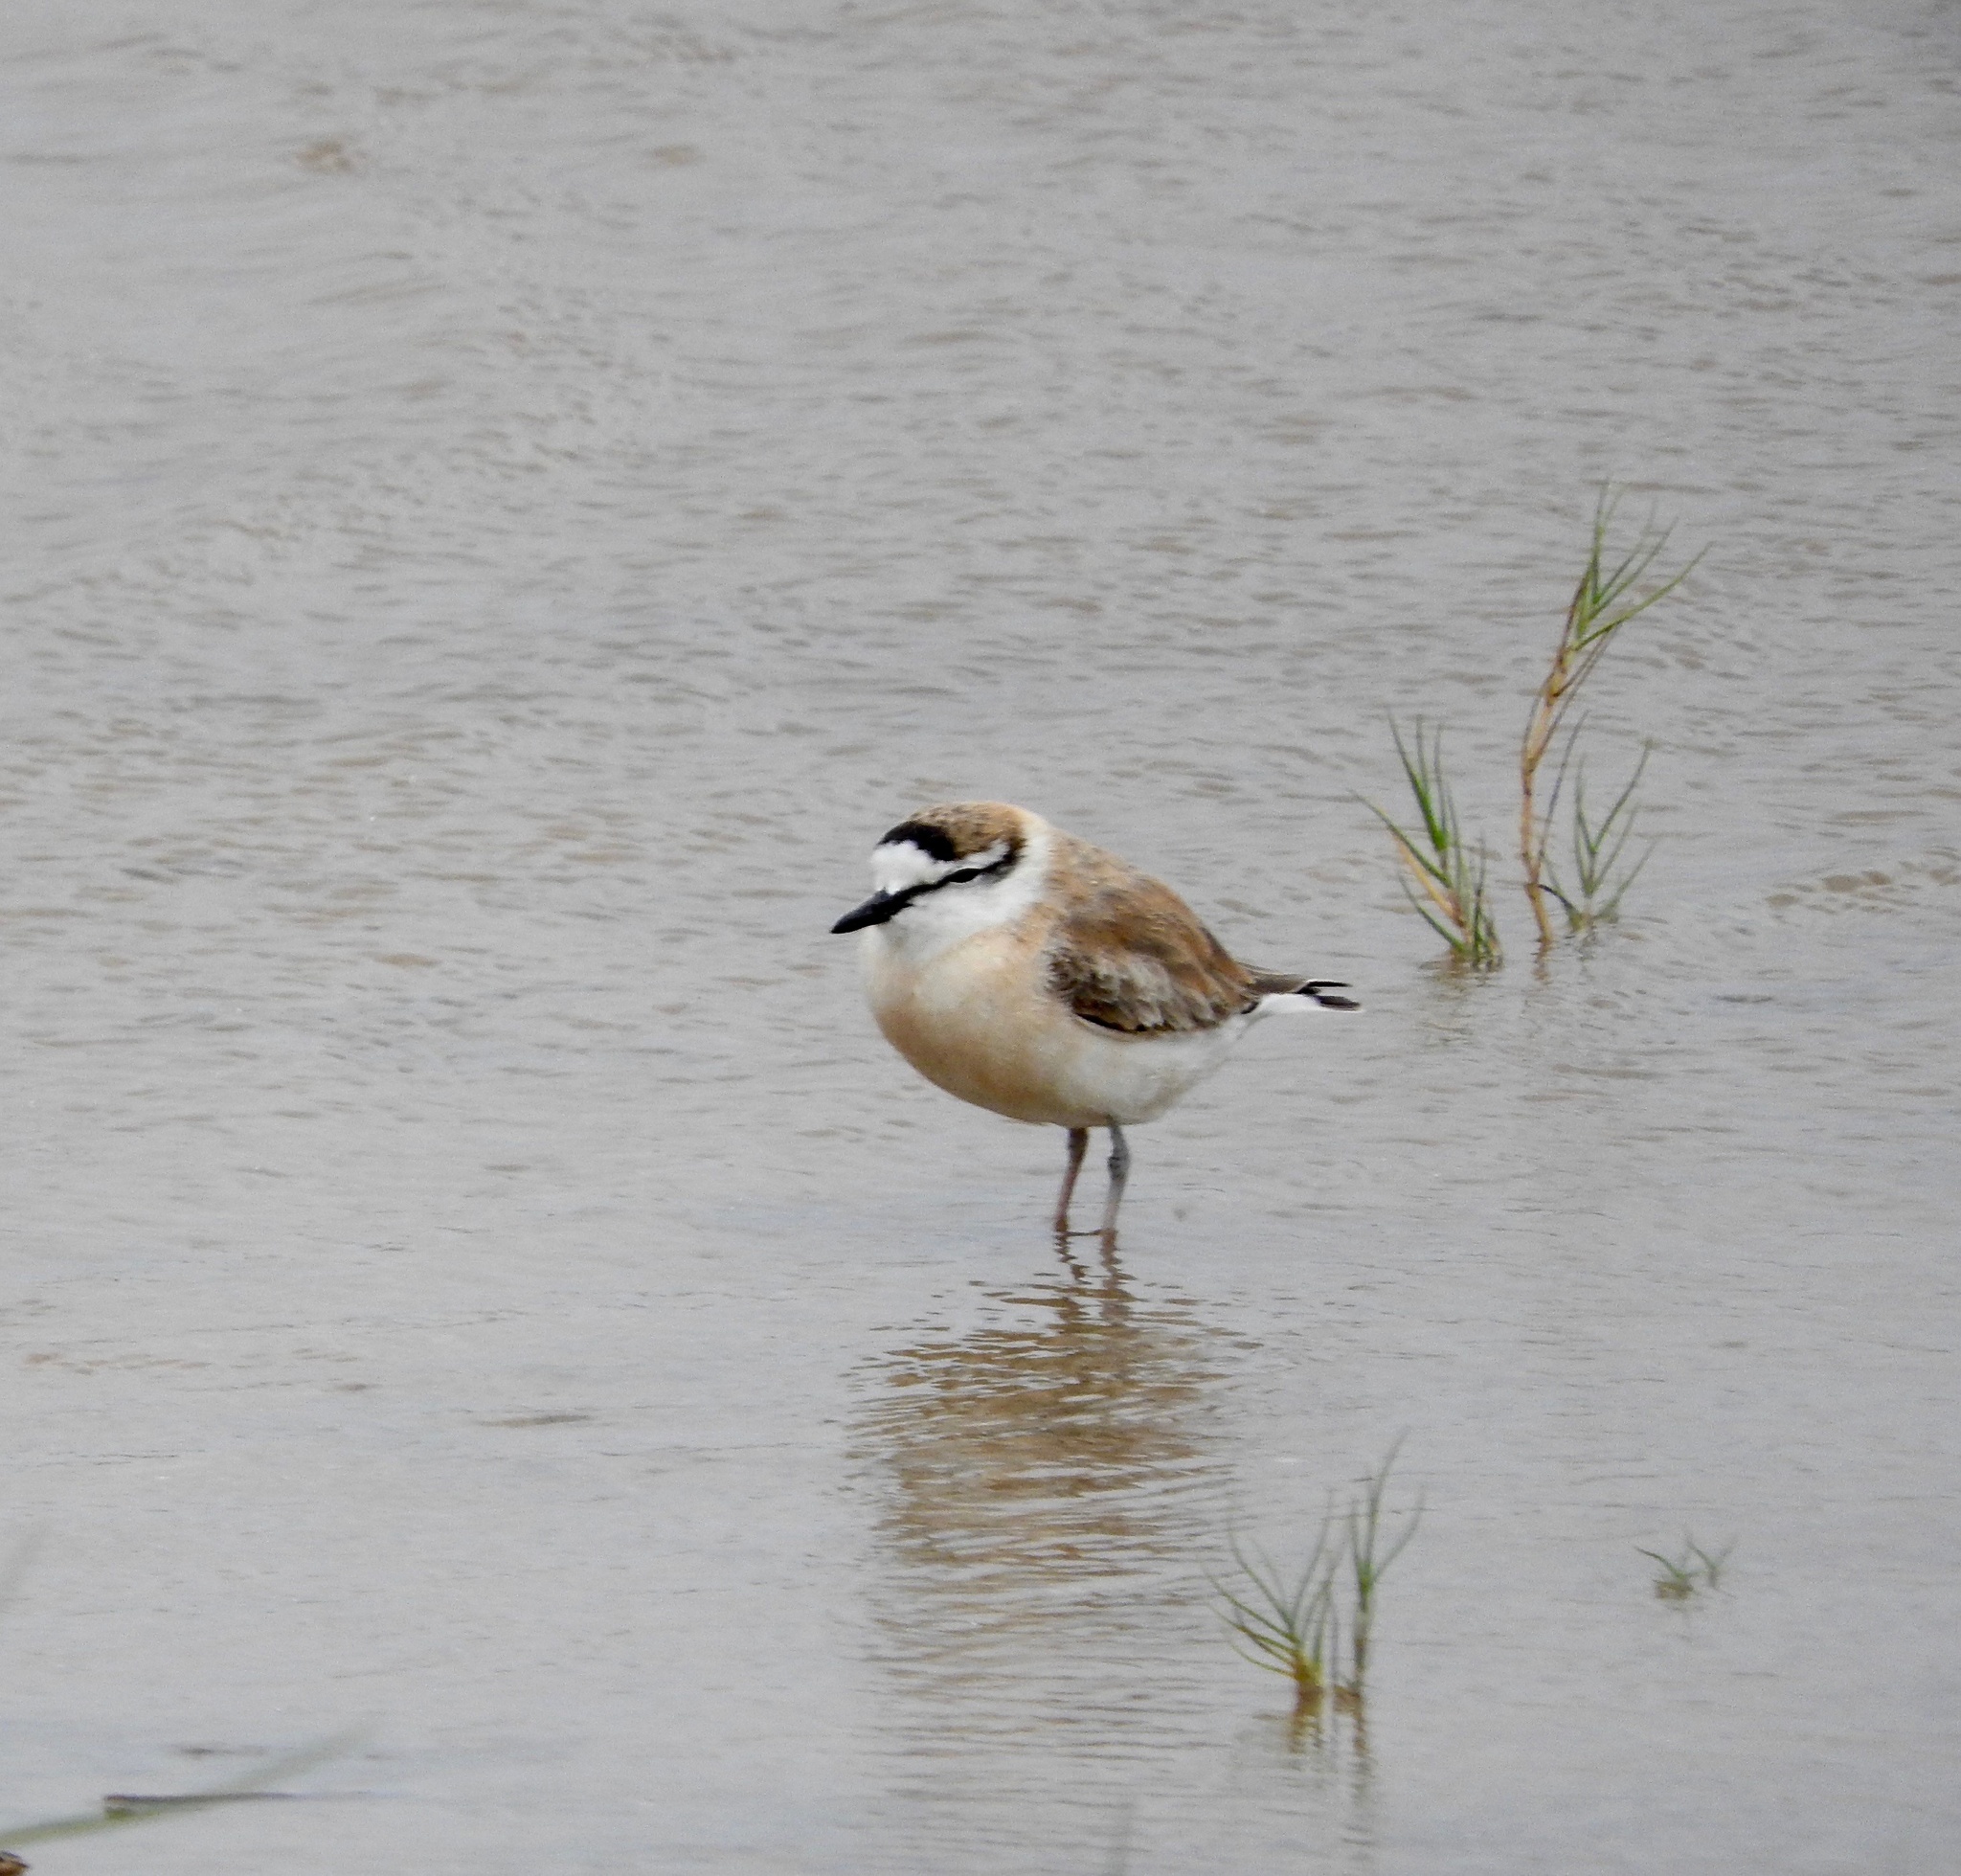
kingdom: Animalia
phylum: Chordata
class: Aves
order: Charadriiformes
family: Charadriidae
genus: Anarhynchus
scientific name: Anarhynchus
